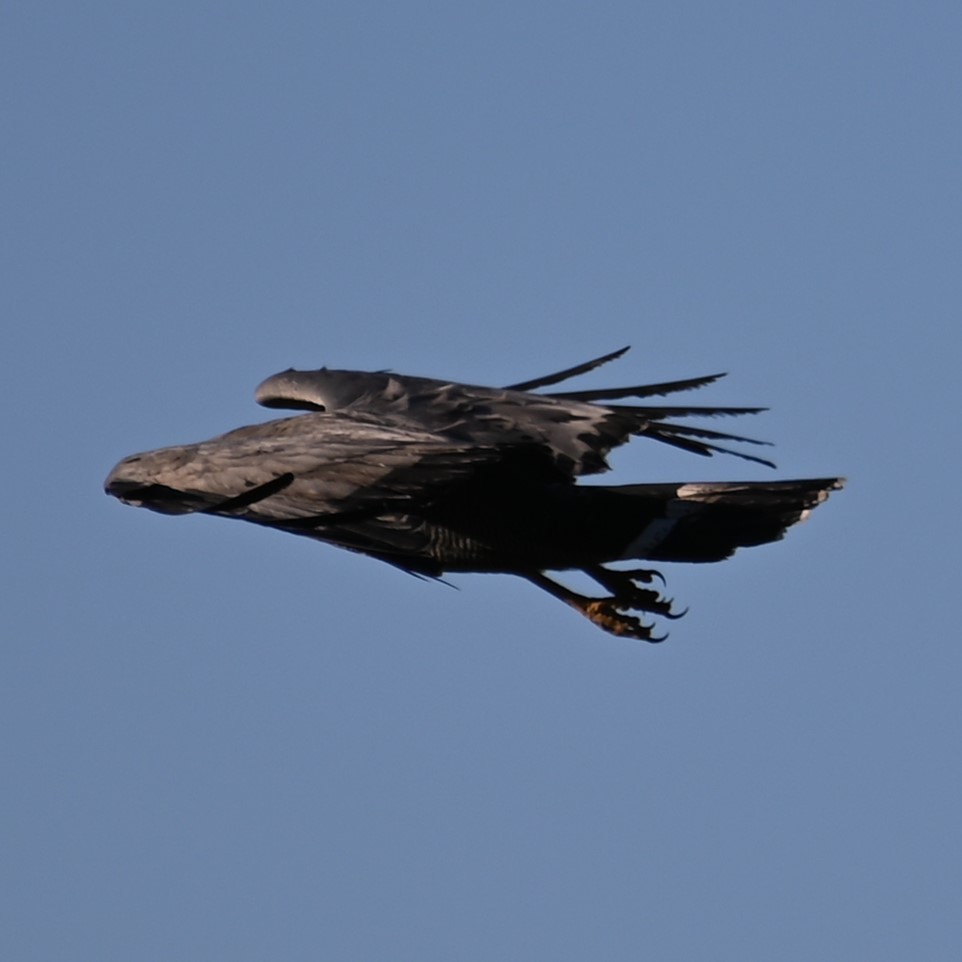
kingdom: Animalia
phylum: Chordata
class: Aves
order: Accipitriformes
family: Accipitridae
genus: Polyboroides
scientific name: Polyboroides typus
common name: African harrier-hawk
